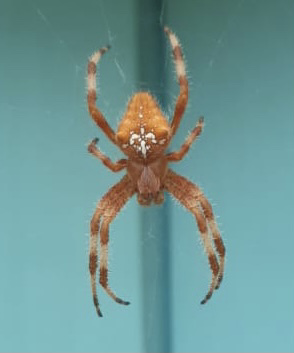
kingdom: Animalia
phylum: Arthropoda
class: Arachnida
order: Araneae
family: Araneidae
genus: Araneus
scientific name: Araneus pallidus
